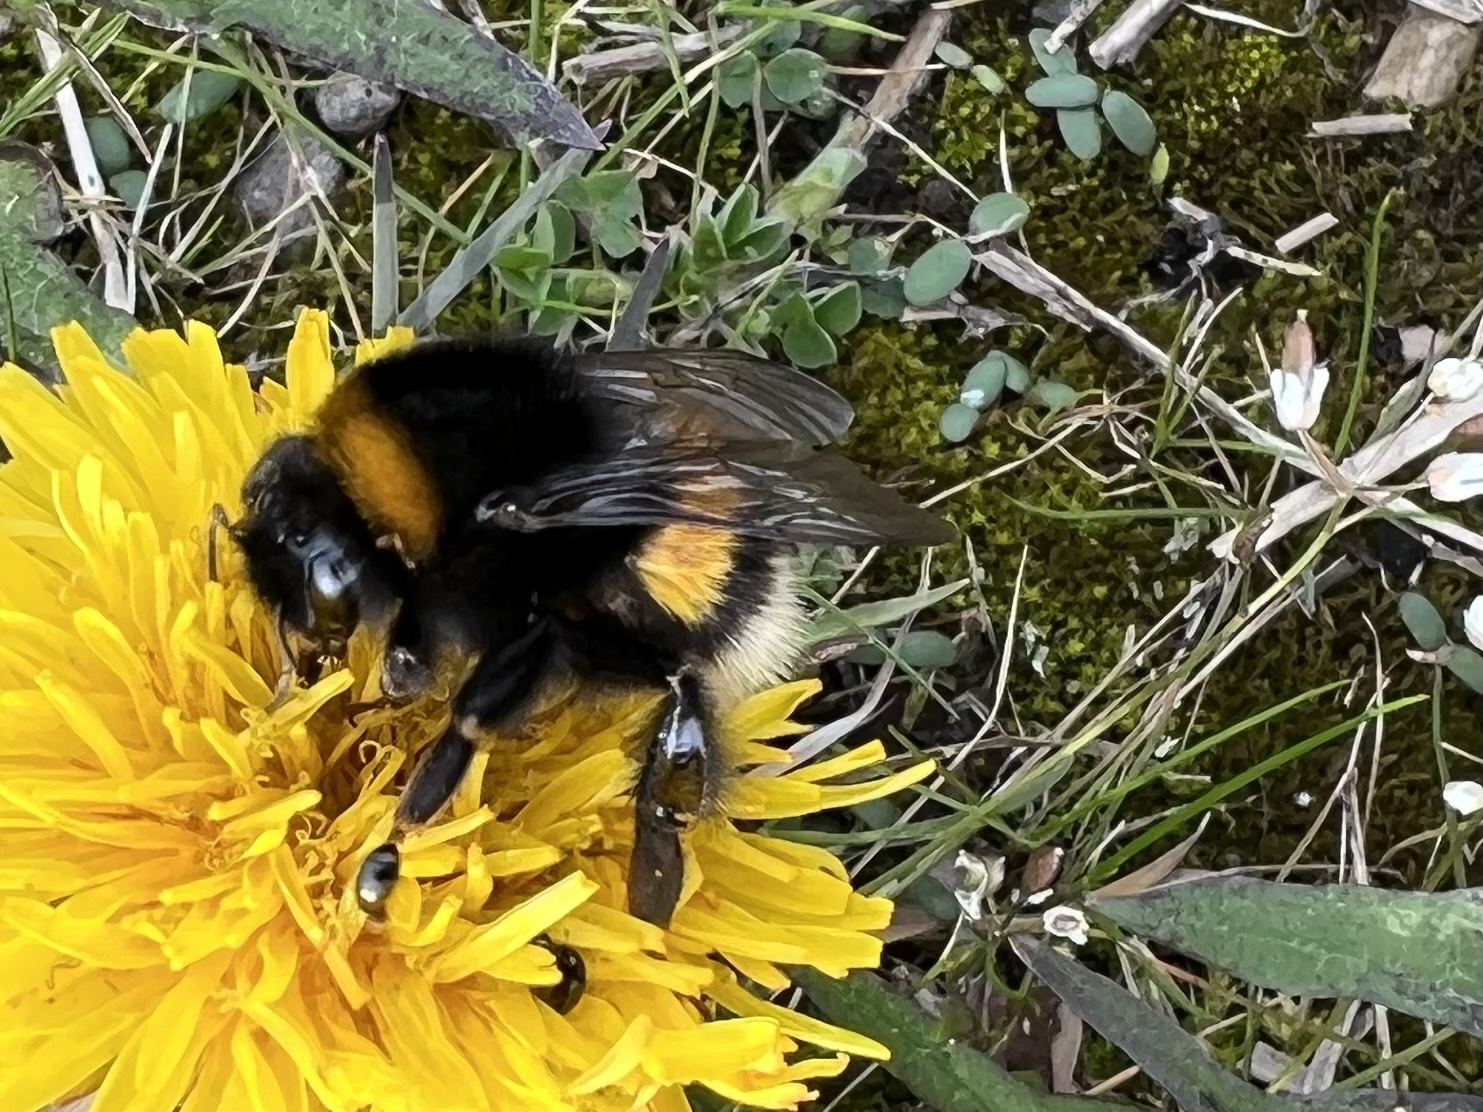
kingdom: Animalia
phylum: Arthropoda
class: Insecta
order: Hymenoptera
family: Apidae
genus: Bombus
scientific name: Bombus terrestris
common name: Buff-tailed bumblebee
